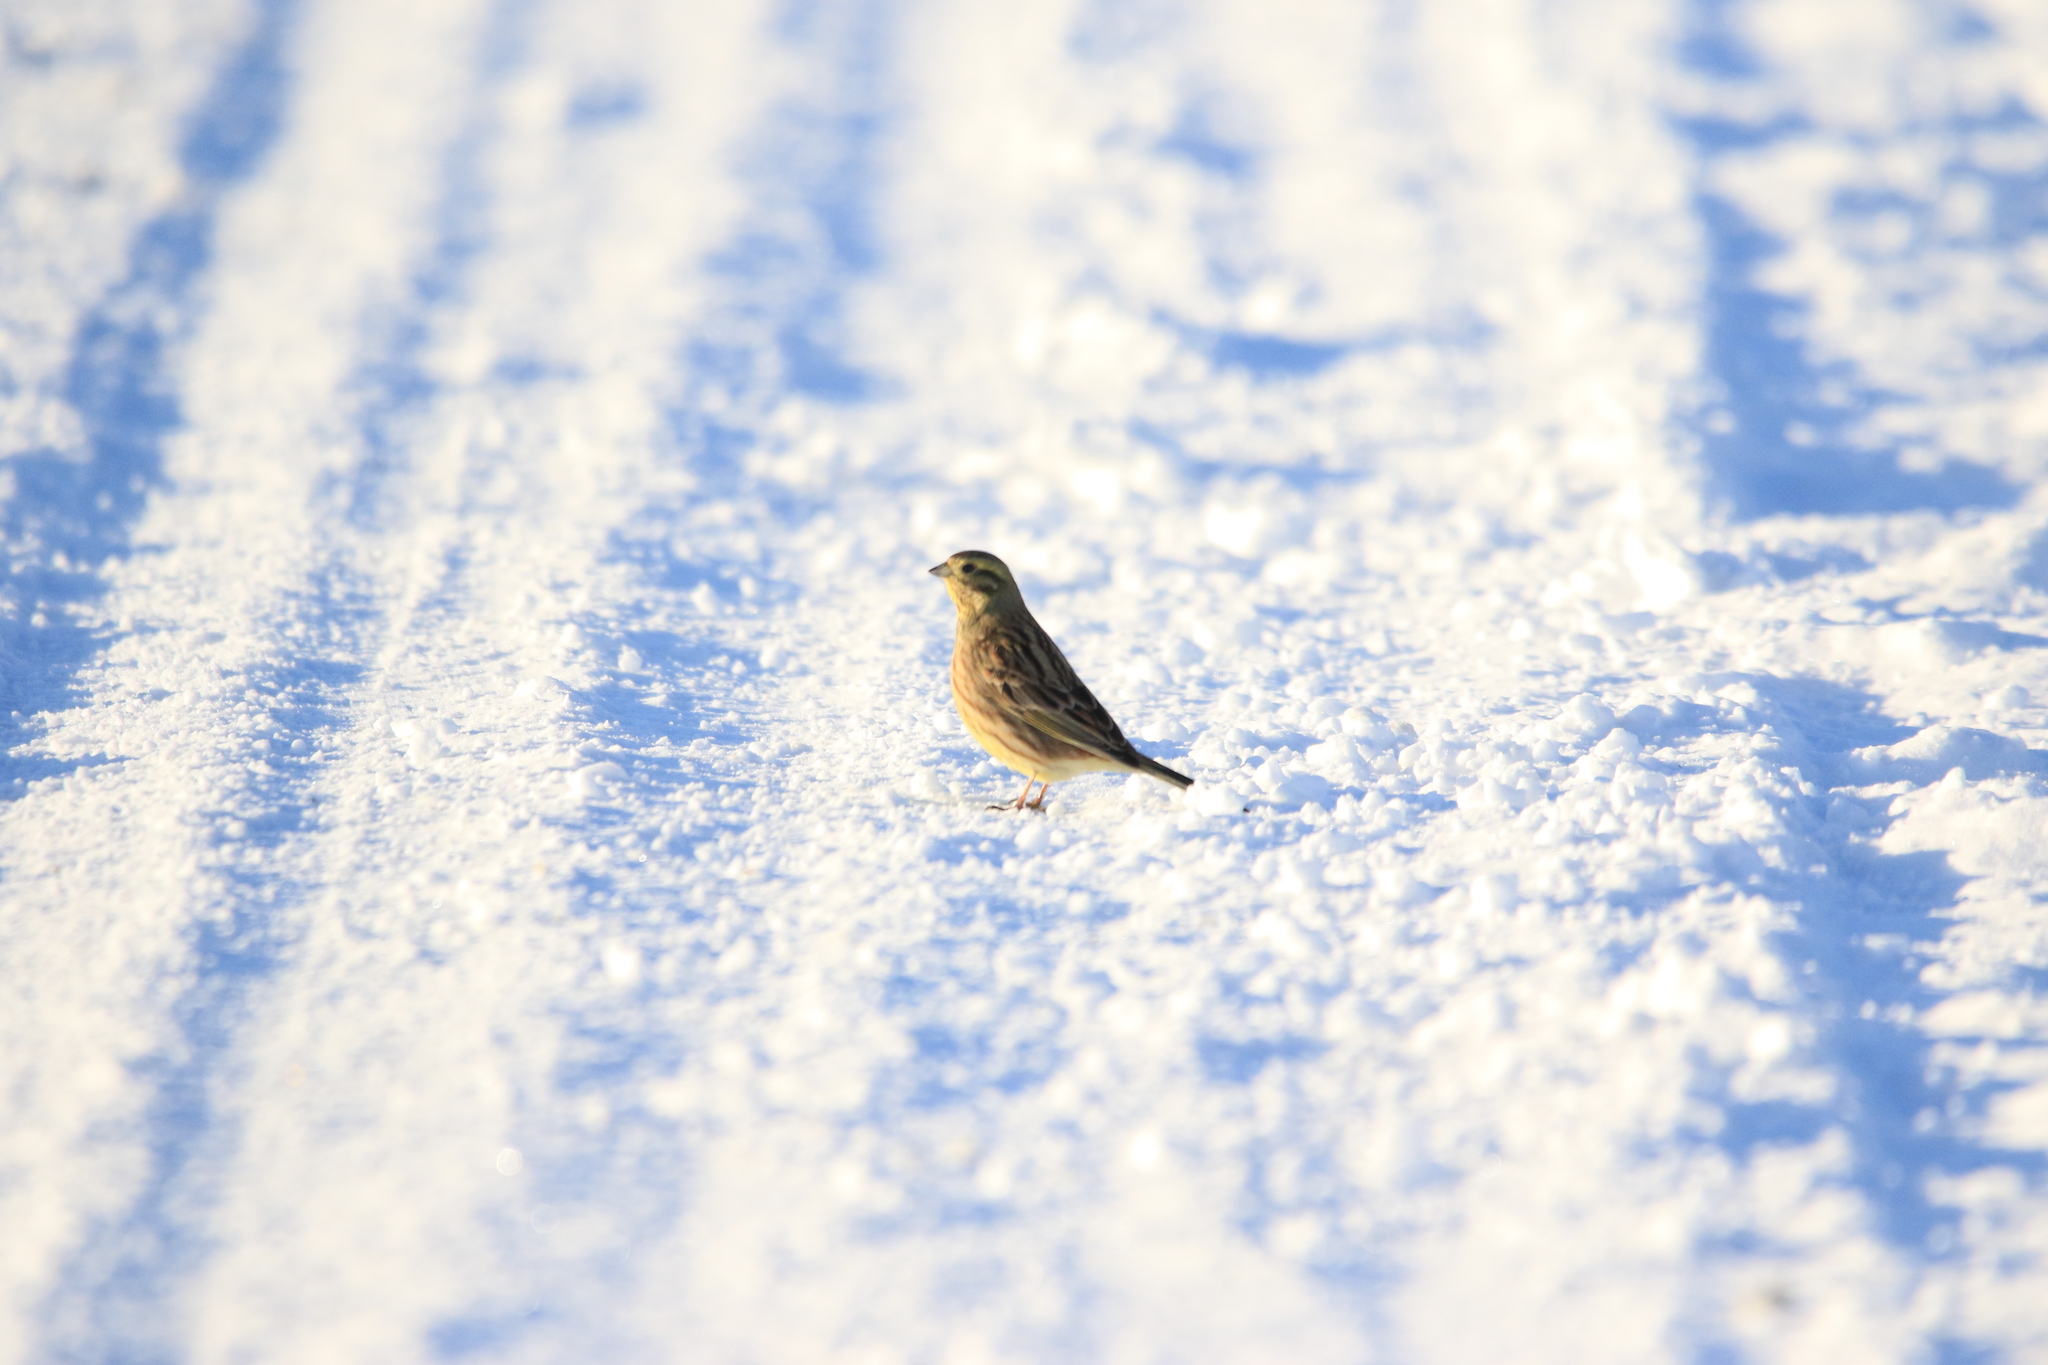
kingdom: Animalia
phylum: Chordata
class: Aves
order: Passeriformes
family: Emberizidae
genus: Emberiza
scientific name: Emberiza citrinella
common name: Yellowhammer
